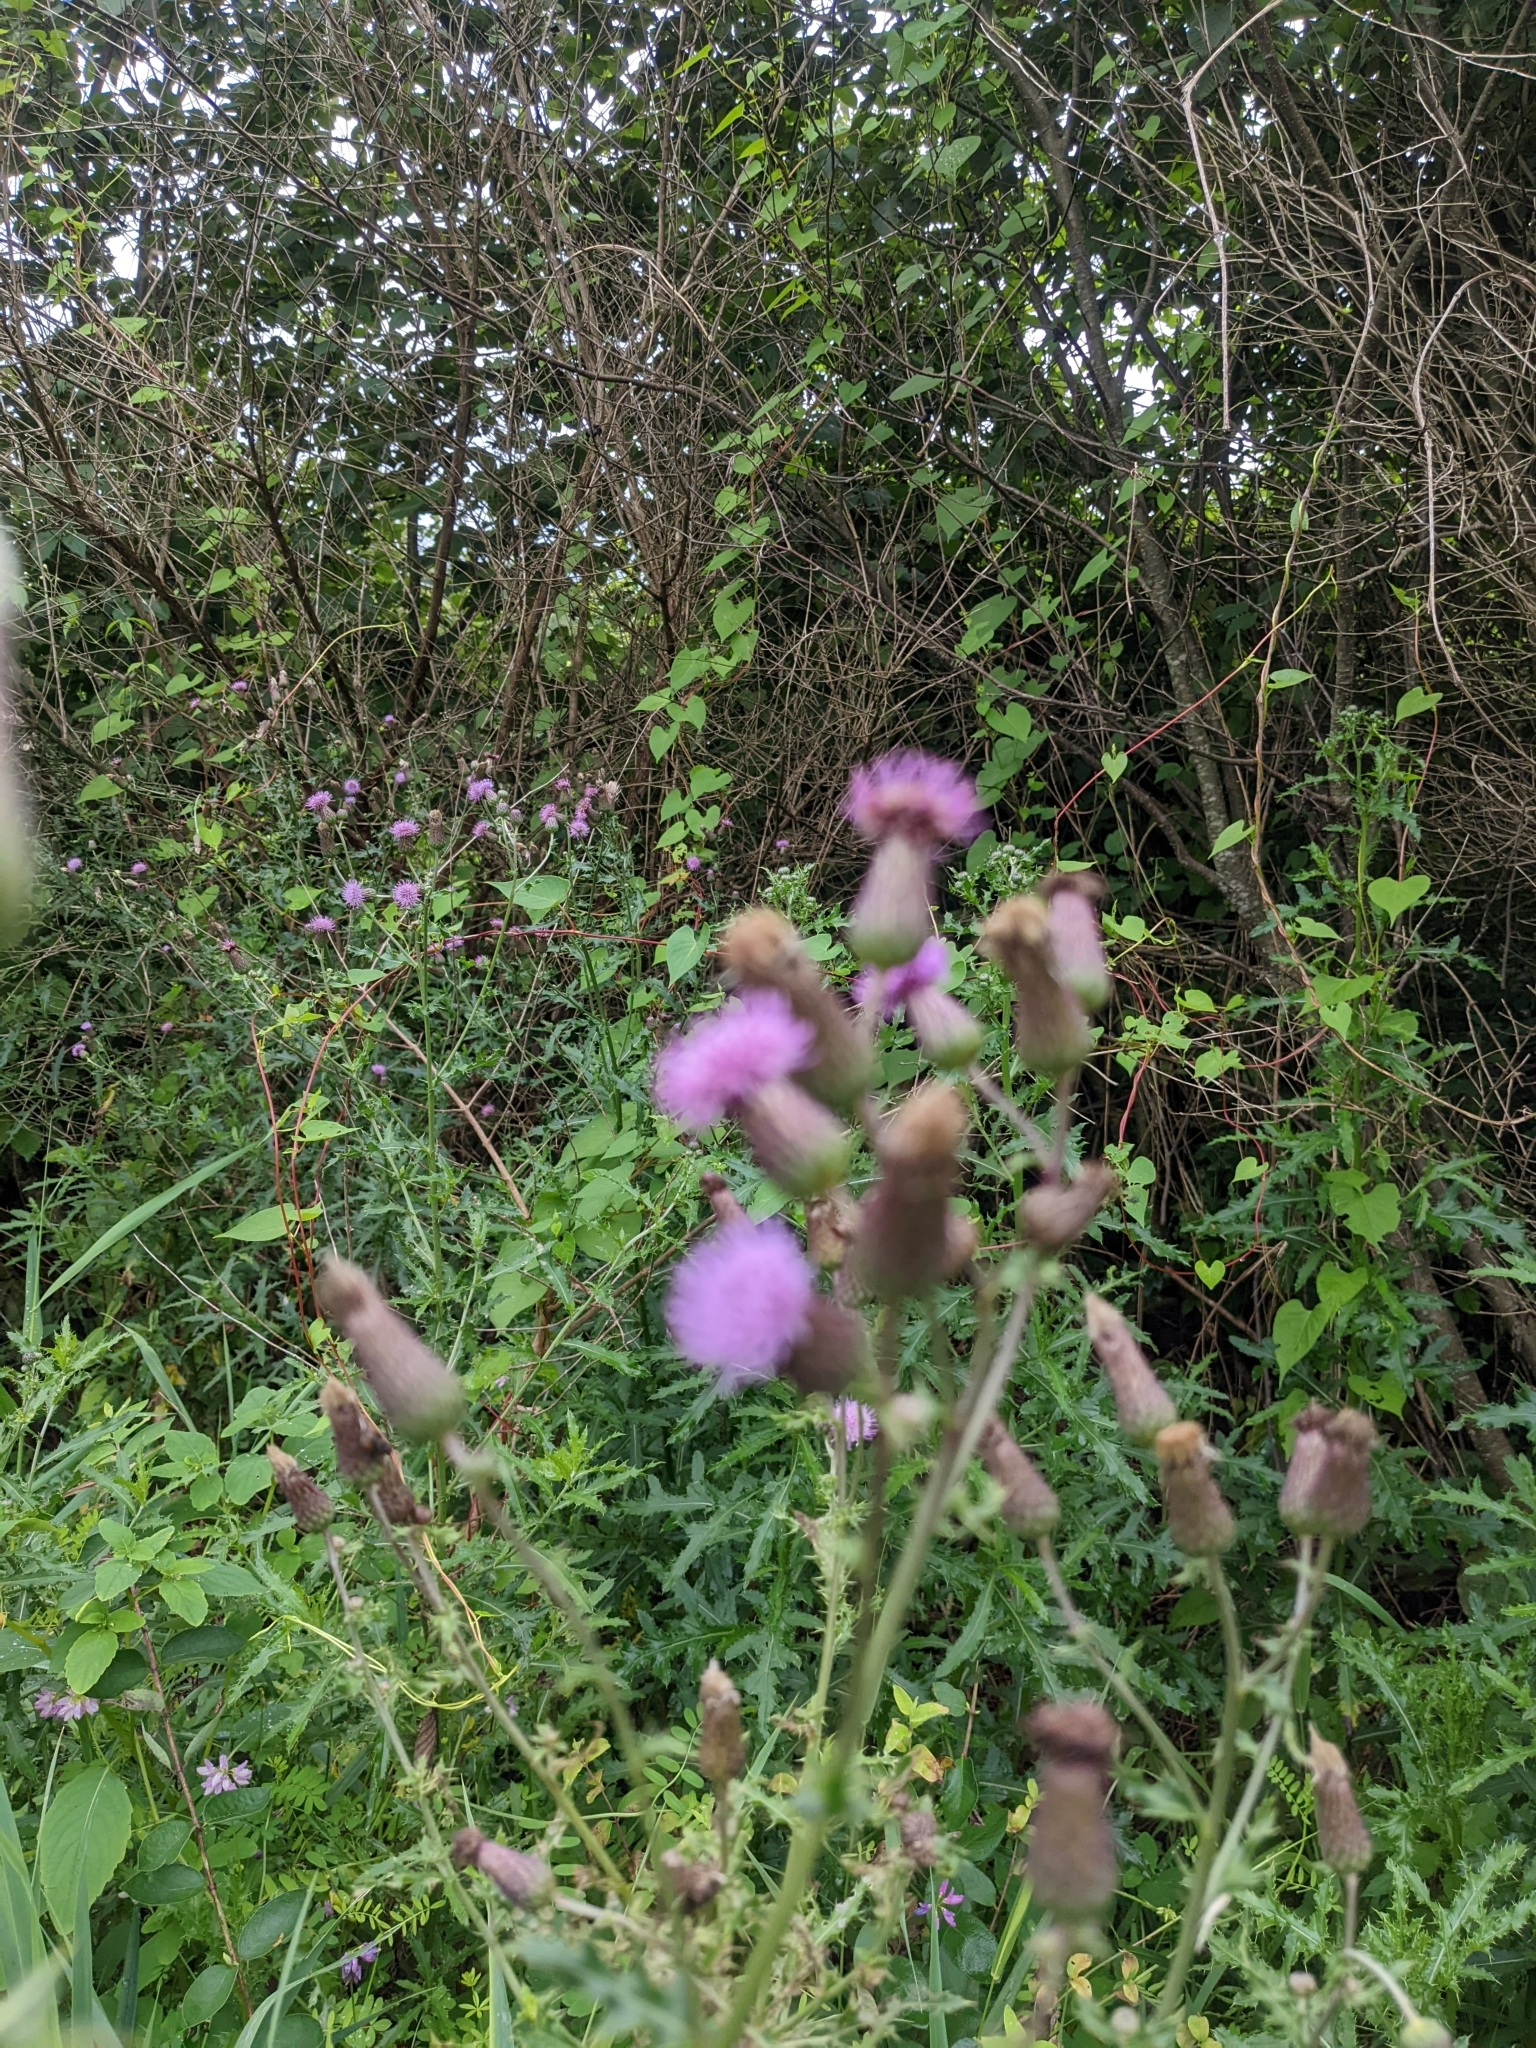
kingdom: Plantae
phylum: Tracheophyta
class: Magnoliopsida
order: Asterales
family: Asteraceae
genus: Cirsium
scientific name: Cirsium arvense
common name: Creeping thistle
